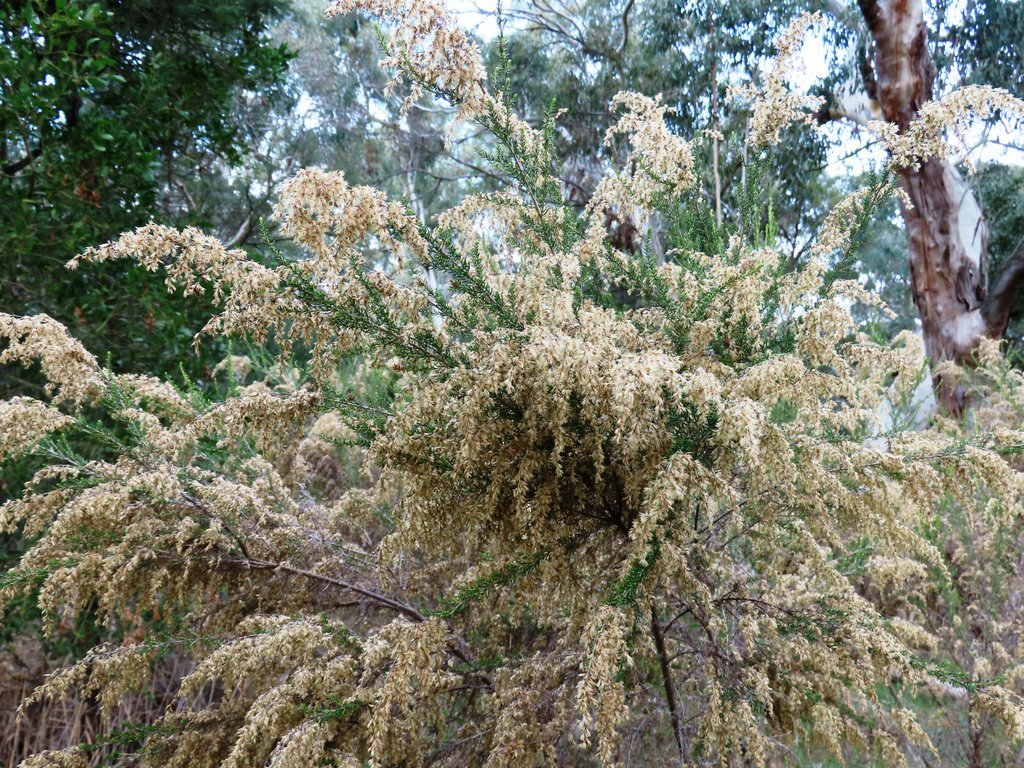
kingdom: Plantae
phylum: Tracheophyta
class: Magnoliopsida
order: Asterales
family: Asteraceae
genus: Cassinia
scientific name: Cassinia sifton
